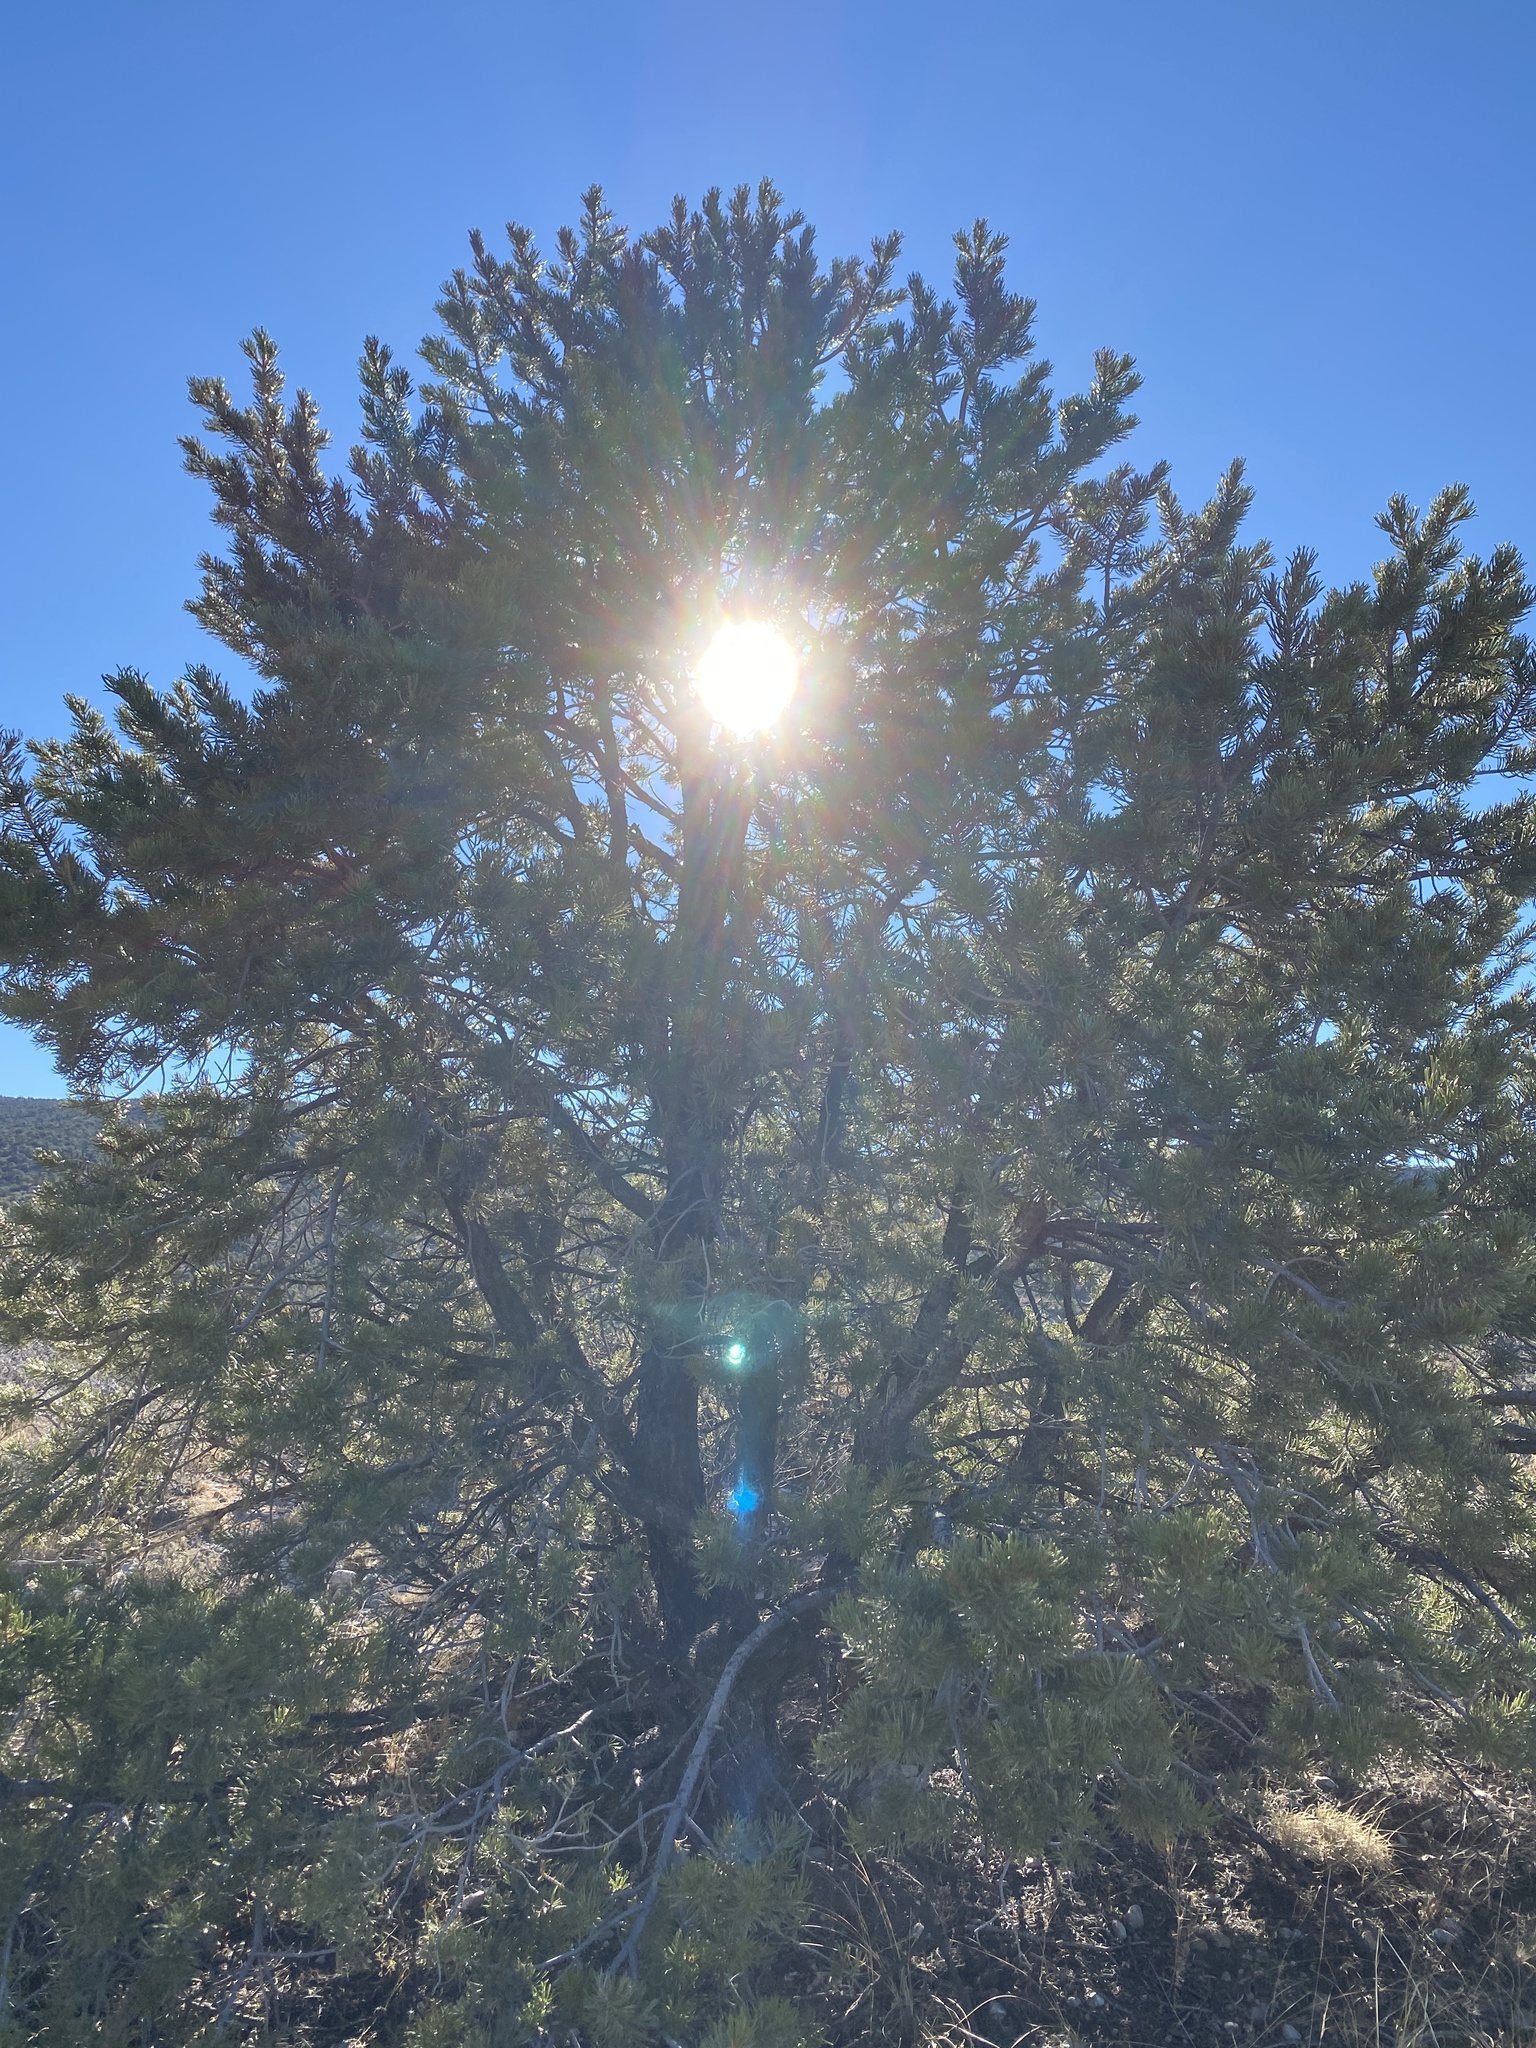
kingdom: Plantae
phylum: Tracheophyta
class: Pinopsida
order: Pinales
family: Pinaceae
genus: Pinus
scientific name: Pinus edulis
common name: Colorado pinyon
